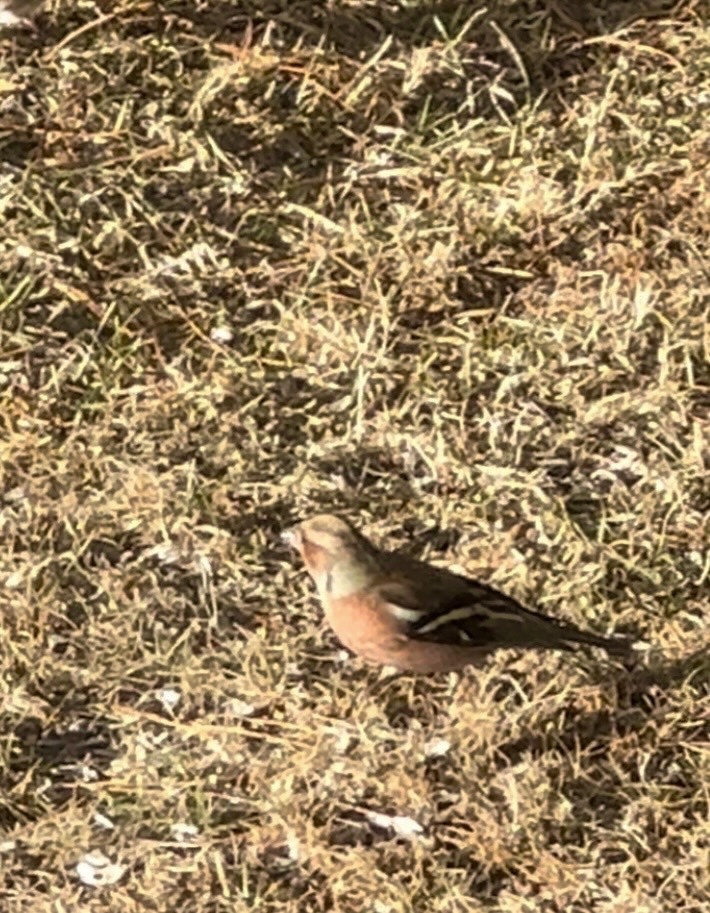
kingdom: Animalia
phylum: Chordata
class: Aves
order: Passeriformes
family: Fringillidae
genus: Fringilla
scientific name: Fringilla coelebs
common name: Common chaffinch
